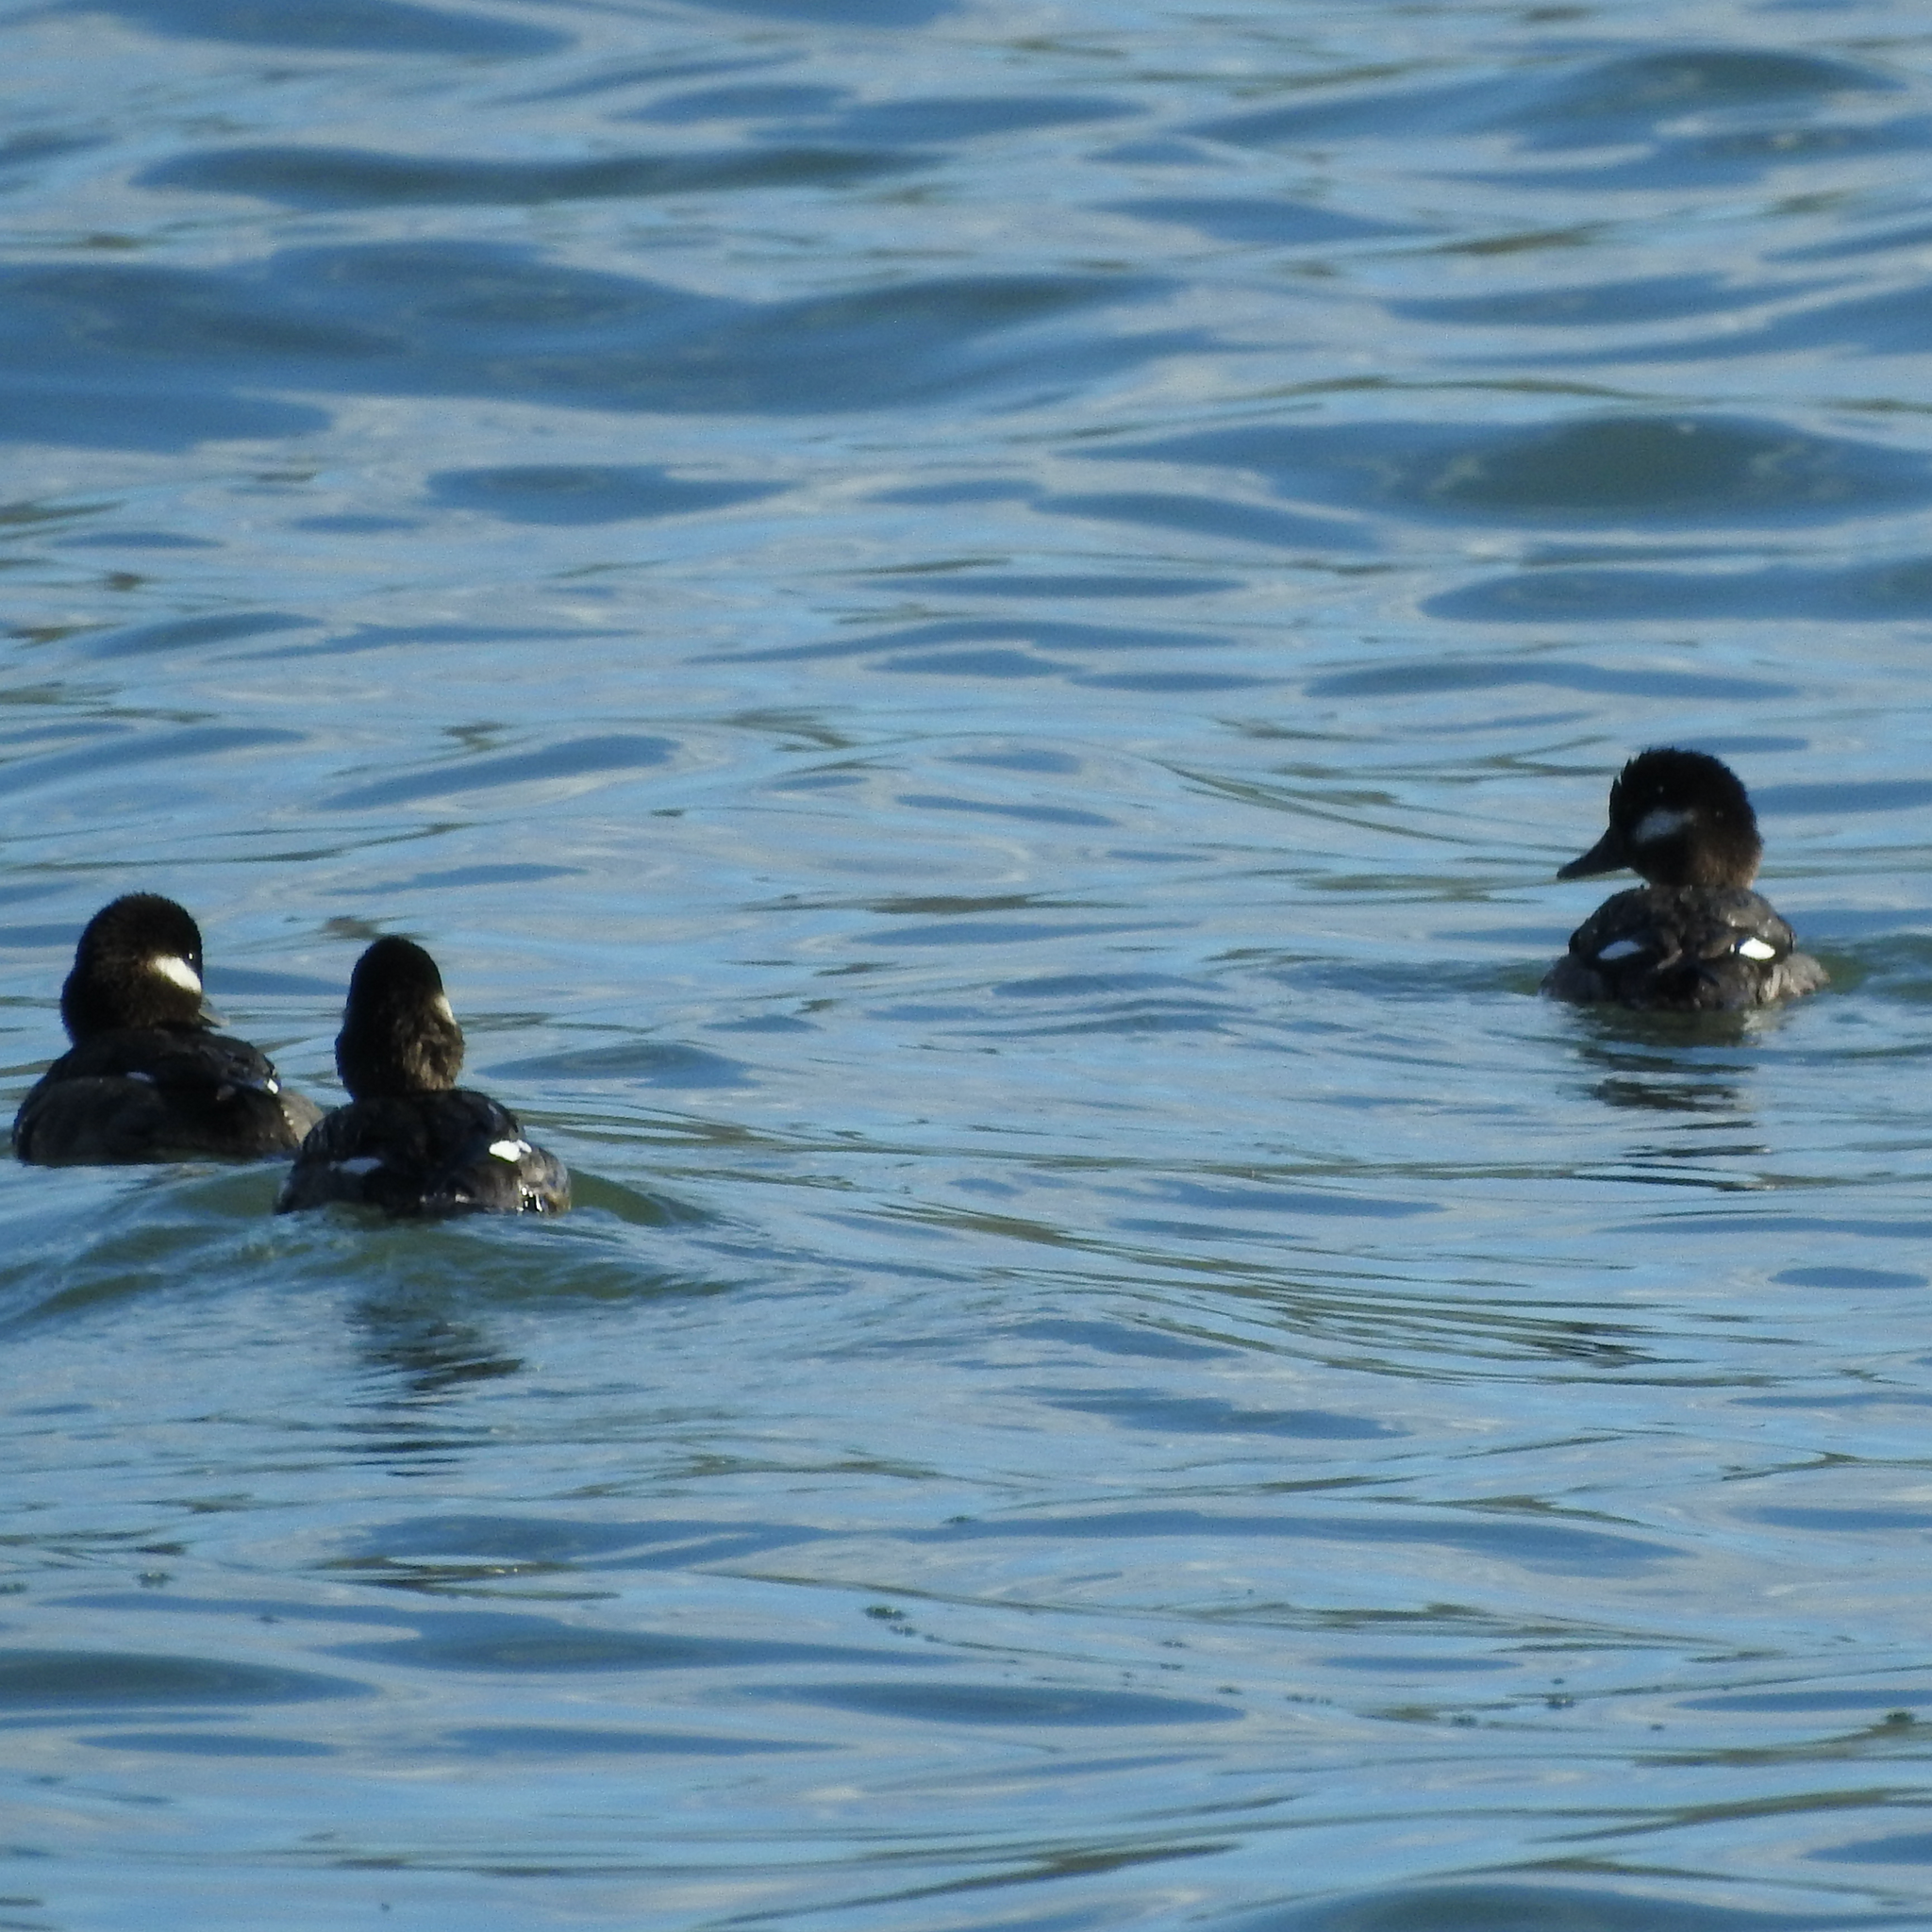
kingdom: Animalia
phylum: Chordata
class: Aves
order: Anseriformes
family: Anatidae
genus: Aythya
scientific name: Aythya affinis
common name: Lesser scaup
